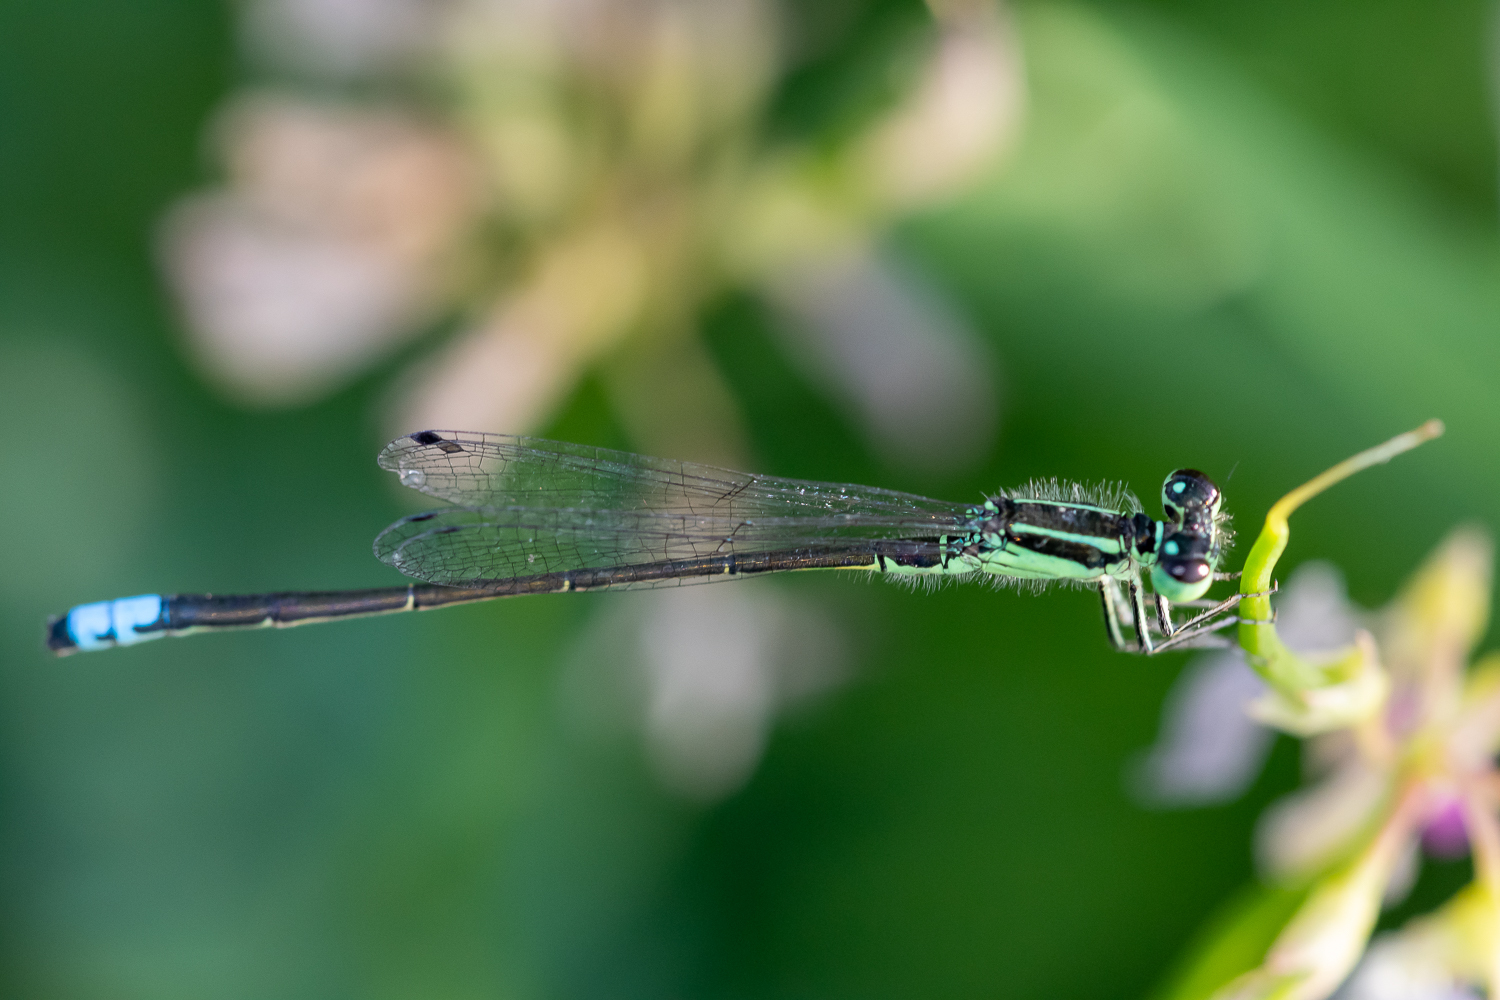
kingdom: Animalia
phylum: Arthropoda
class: Insecta
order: Odonata
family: Coenagrionidae
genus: Ischnura
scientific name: Ischnura verticalis
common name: Eastern forktail
